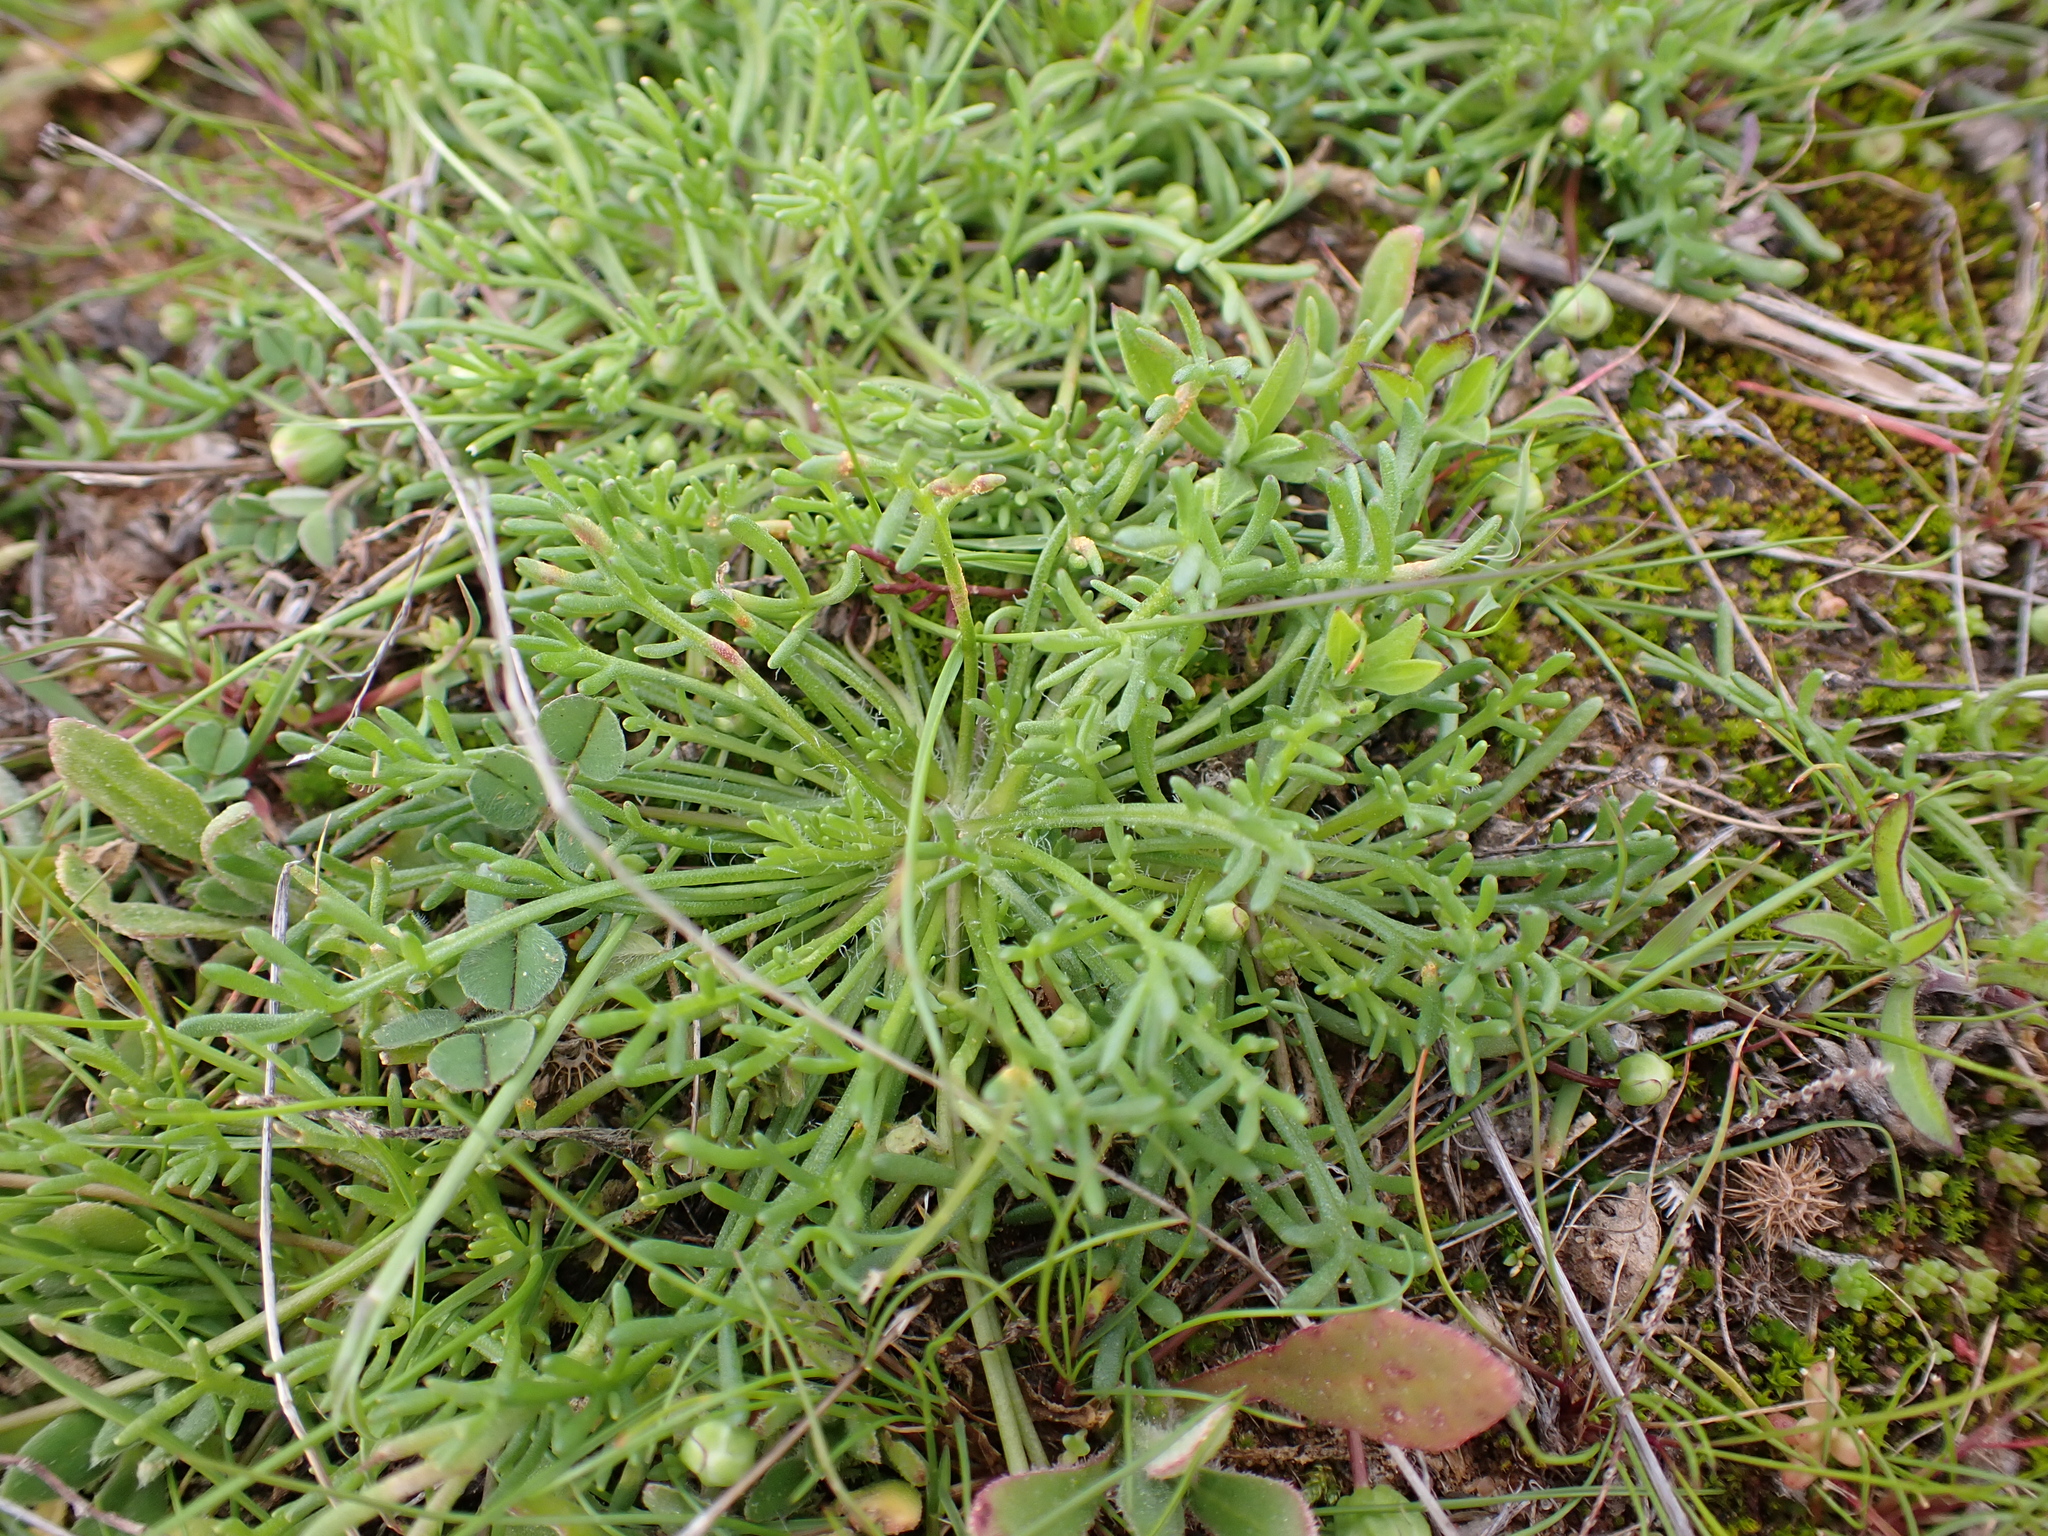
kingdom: Plantae
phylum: Tracheophyta
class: Magnoliopsida
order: Asterales
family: Asteraceae
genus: Brachyscome
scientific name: Brachyscome lineariloba
